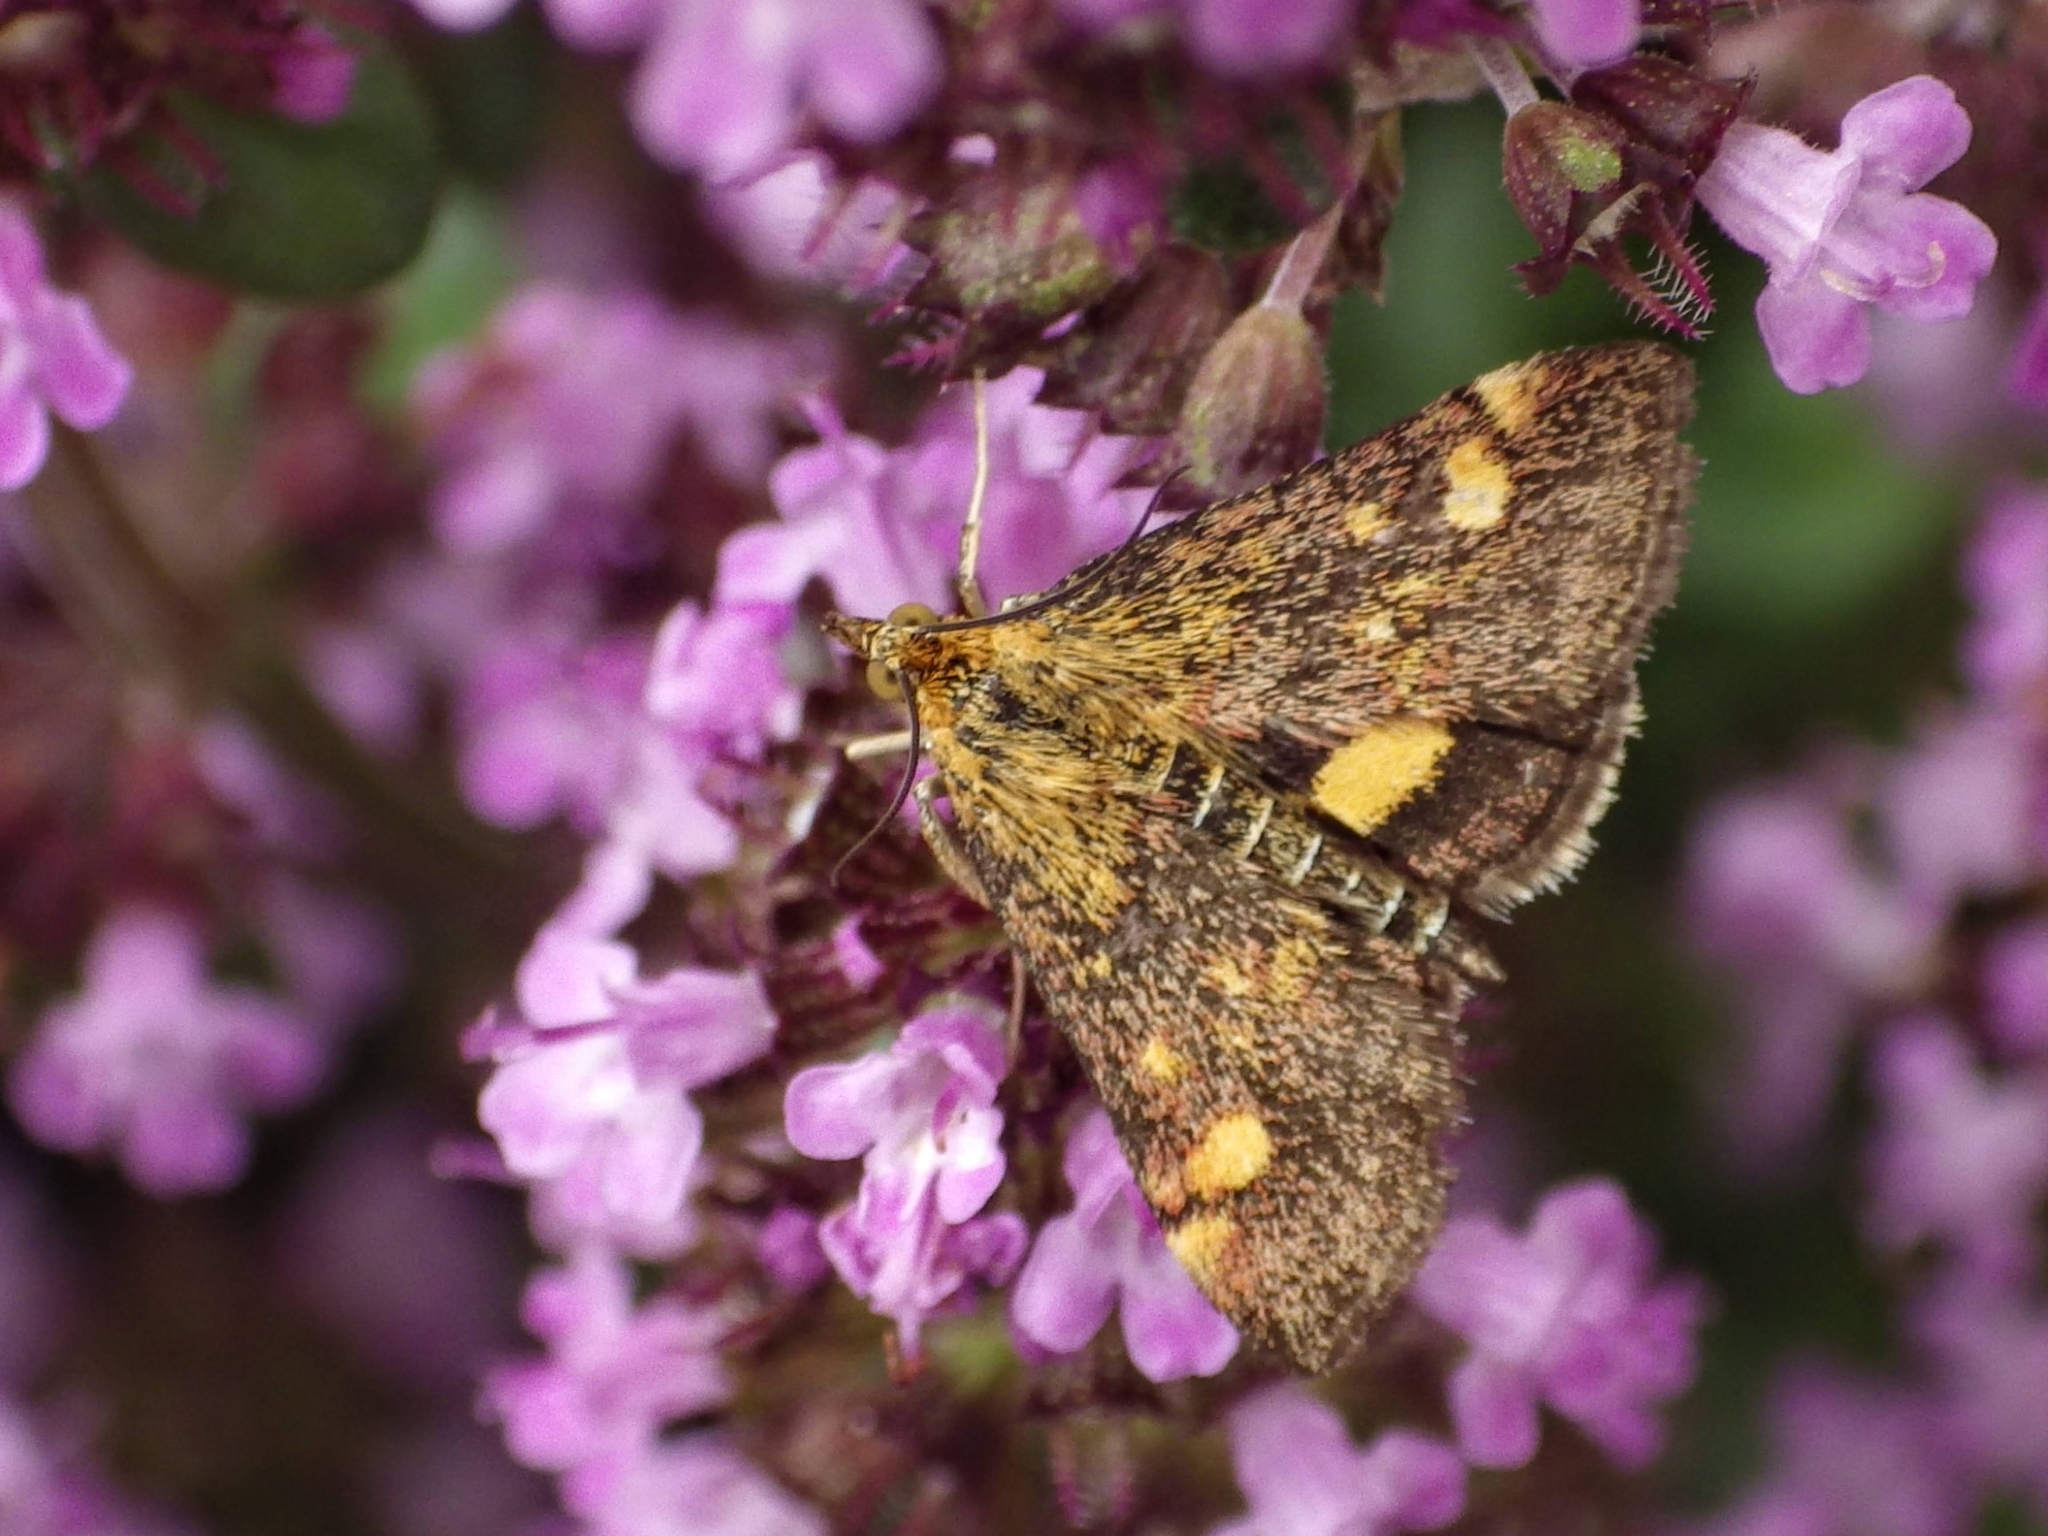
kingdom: Animalia
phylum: Arthropoda
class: Insecta
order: Lepidoptera
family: Crambidae
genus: Pyrausta
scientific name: Pyrausta aurata
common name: Small purple & gold
